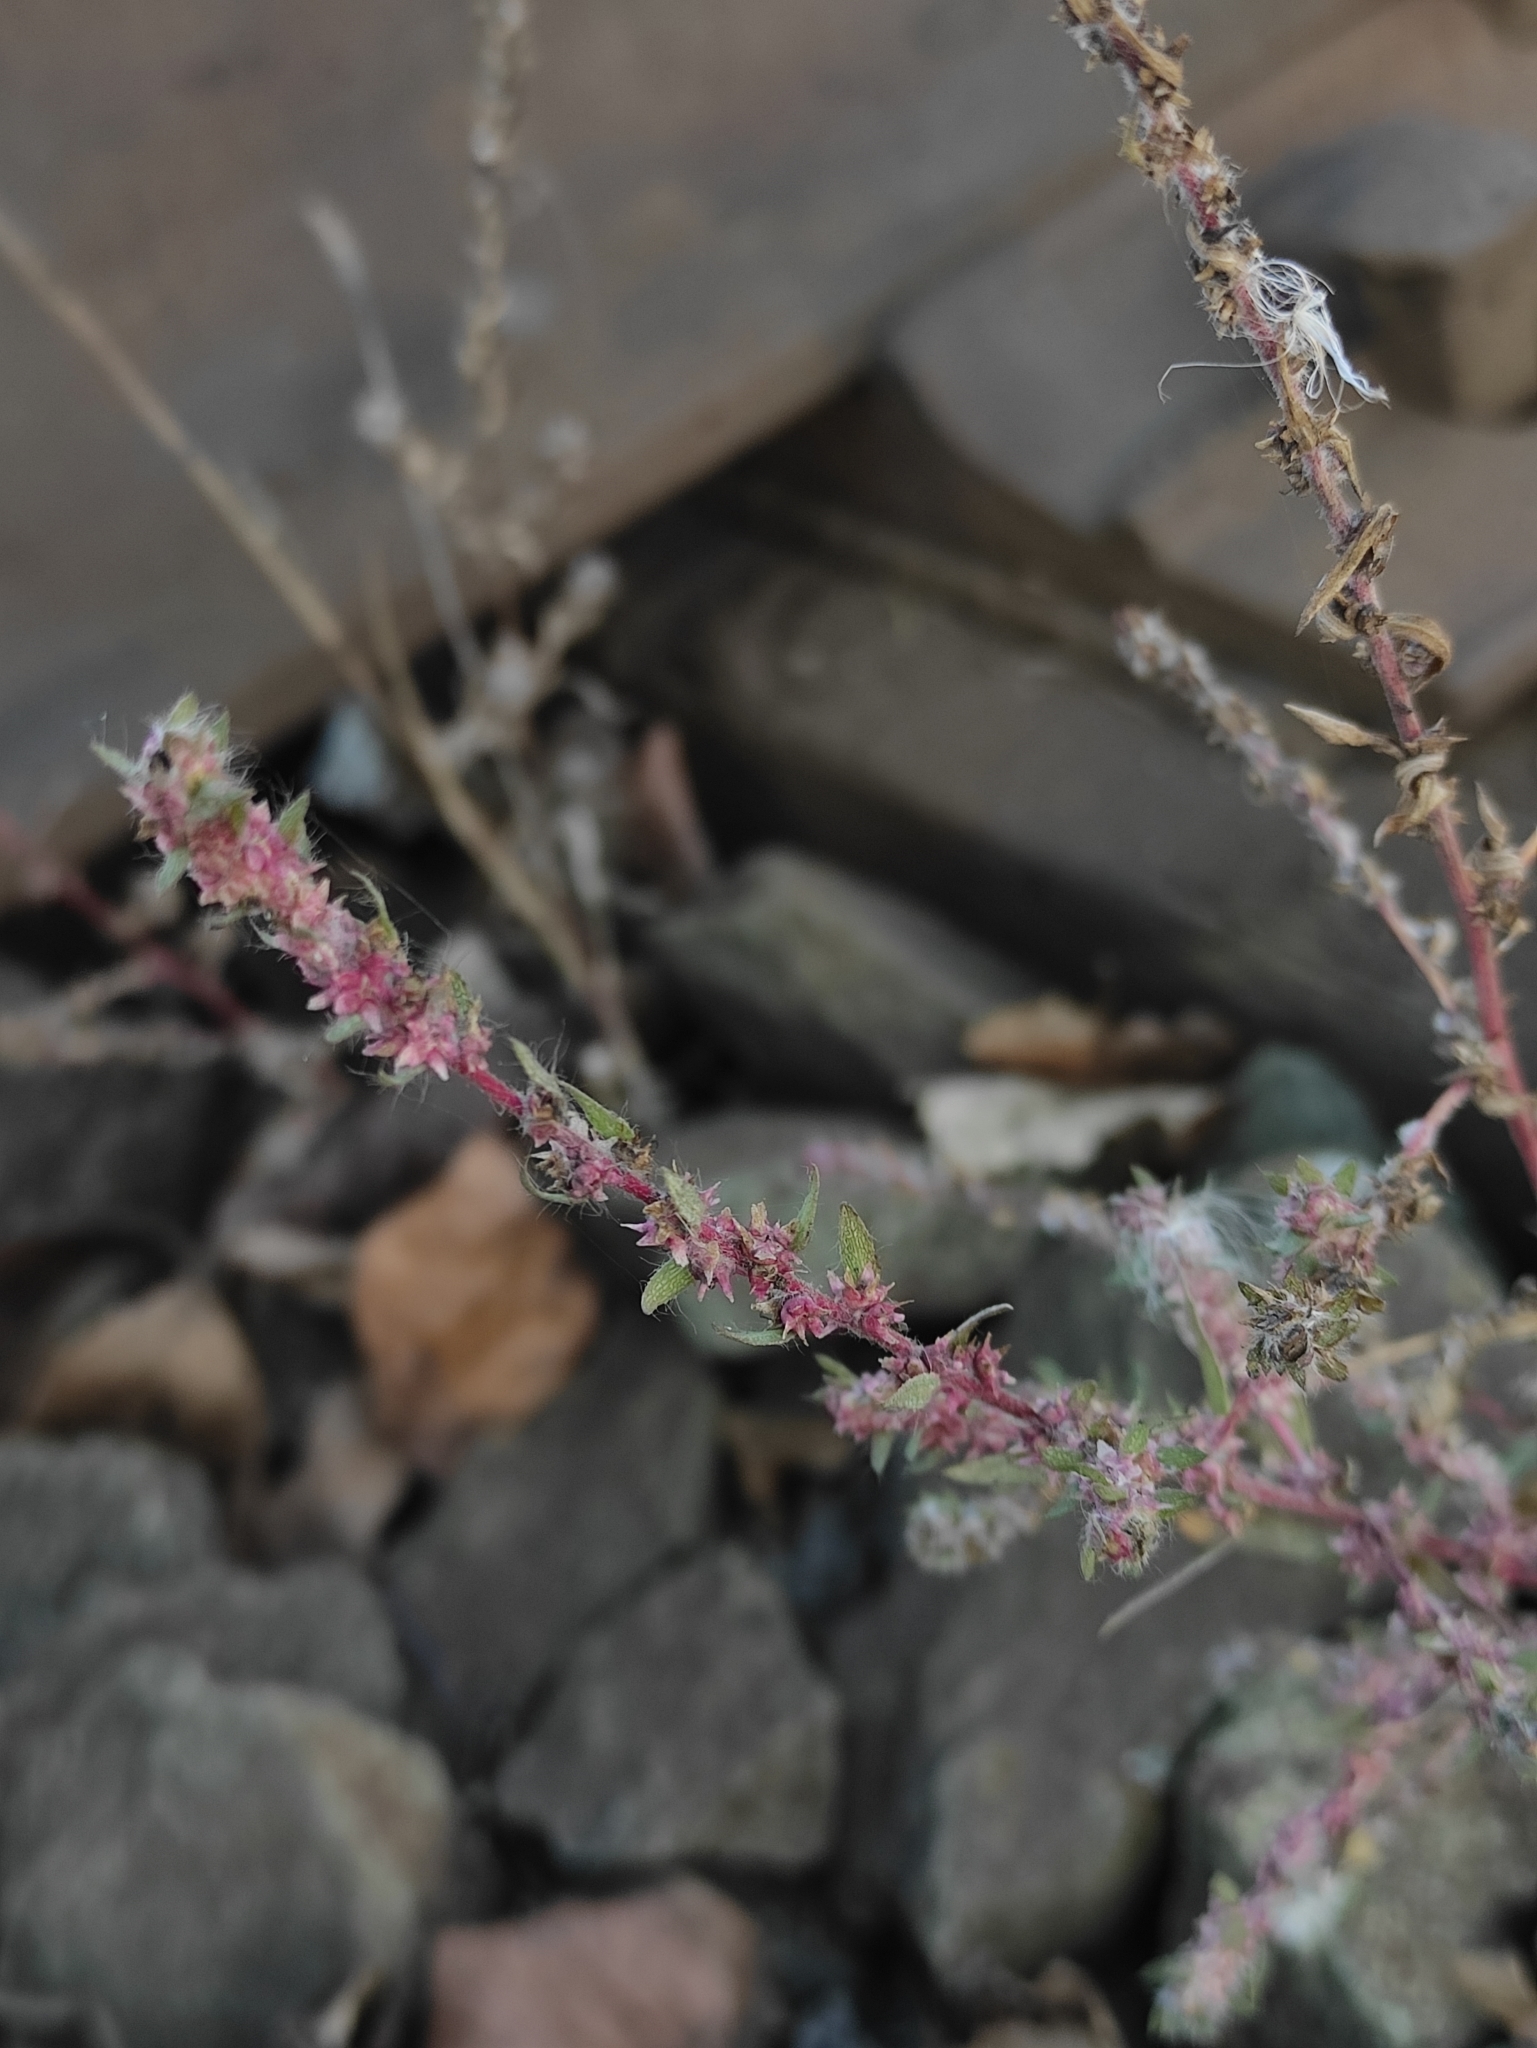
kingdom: Plantae
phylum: Tracheophyta
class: Magnoliopsida
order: Caryophyllales
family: Amaranthaceae
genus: Bassia
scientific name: Bassia scoparia
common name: Belvedere
